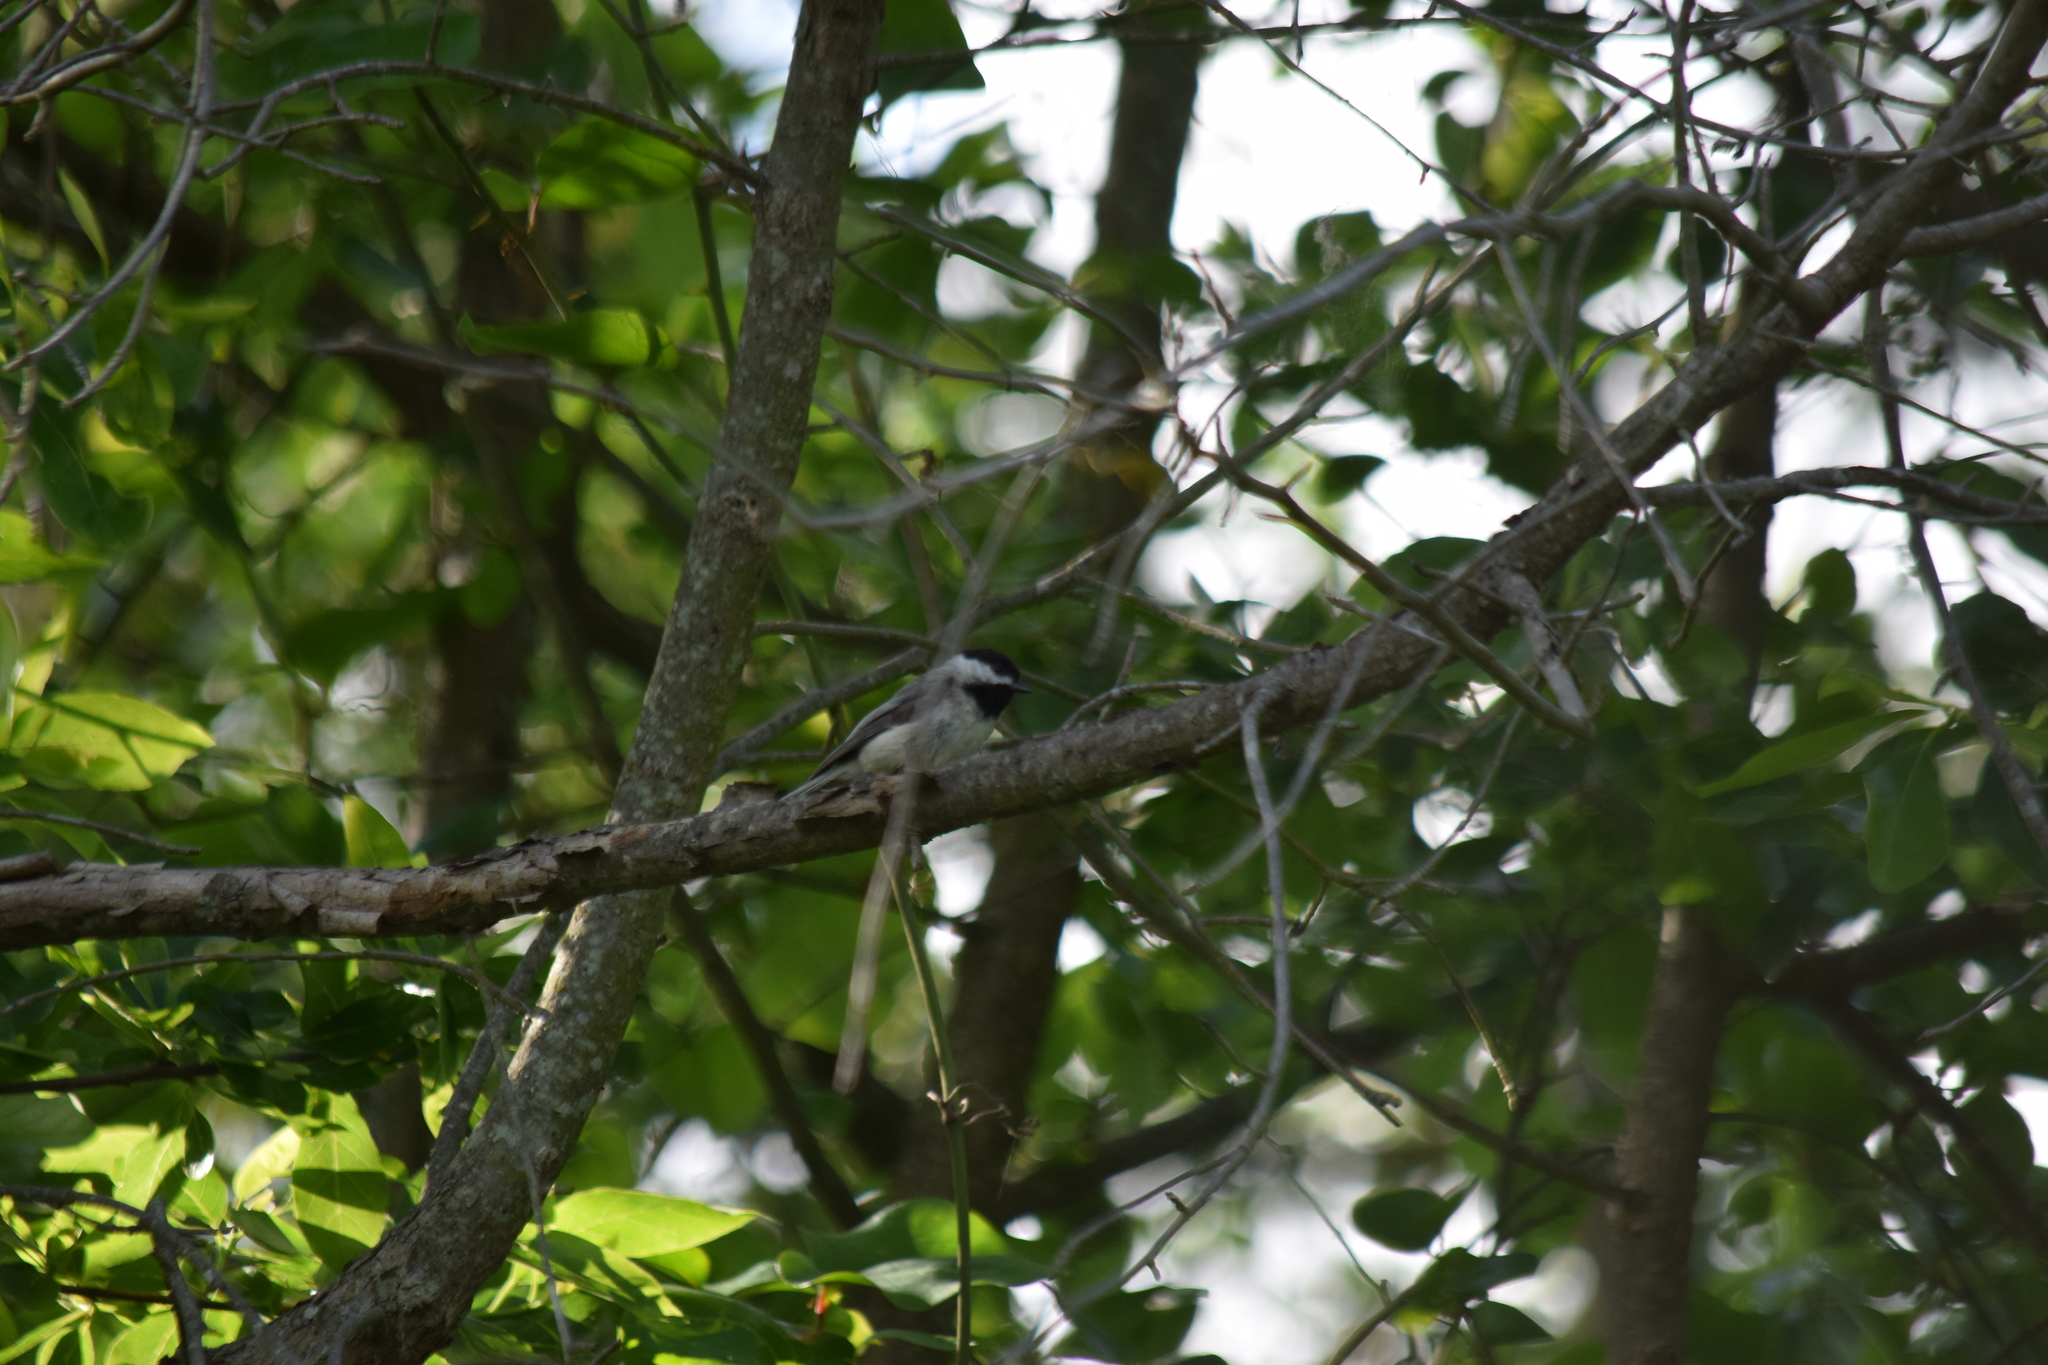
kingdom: Animalia
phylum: Chordata
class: Aves
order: Passeriformes
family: Paridae
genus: Poecile
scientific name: Poecile carolinensis
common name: Carolina chickadee
